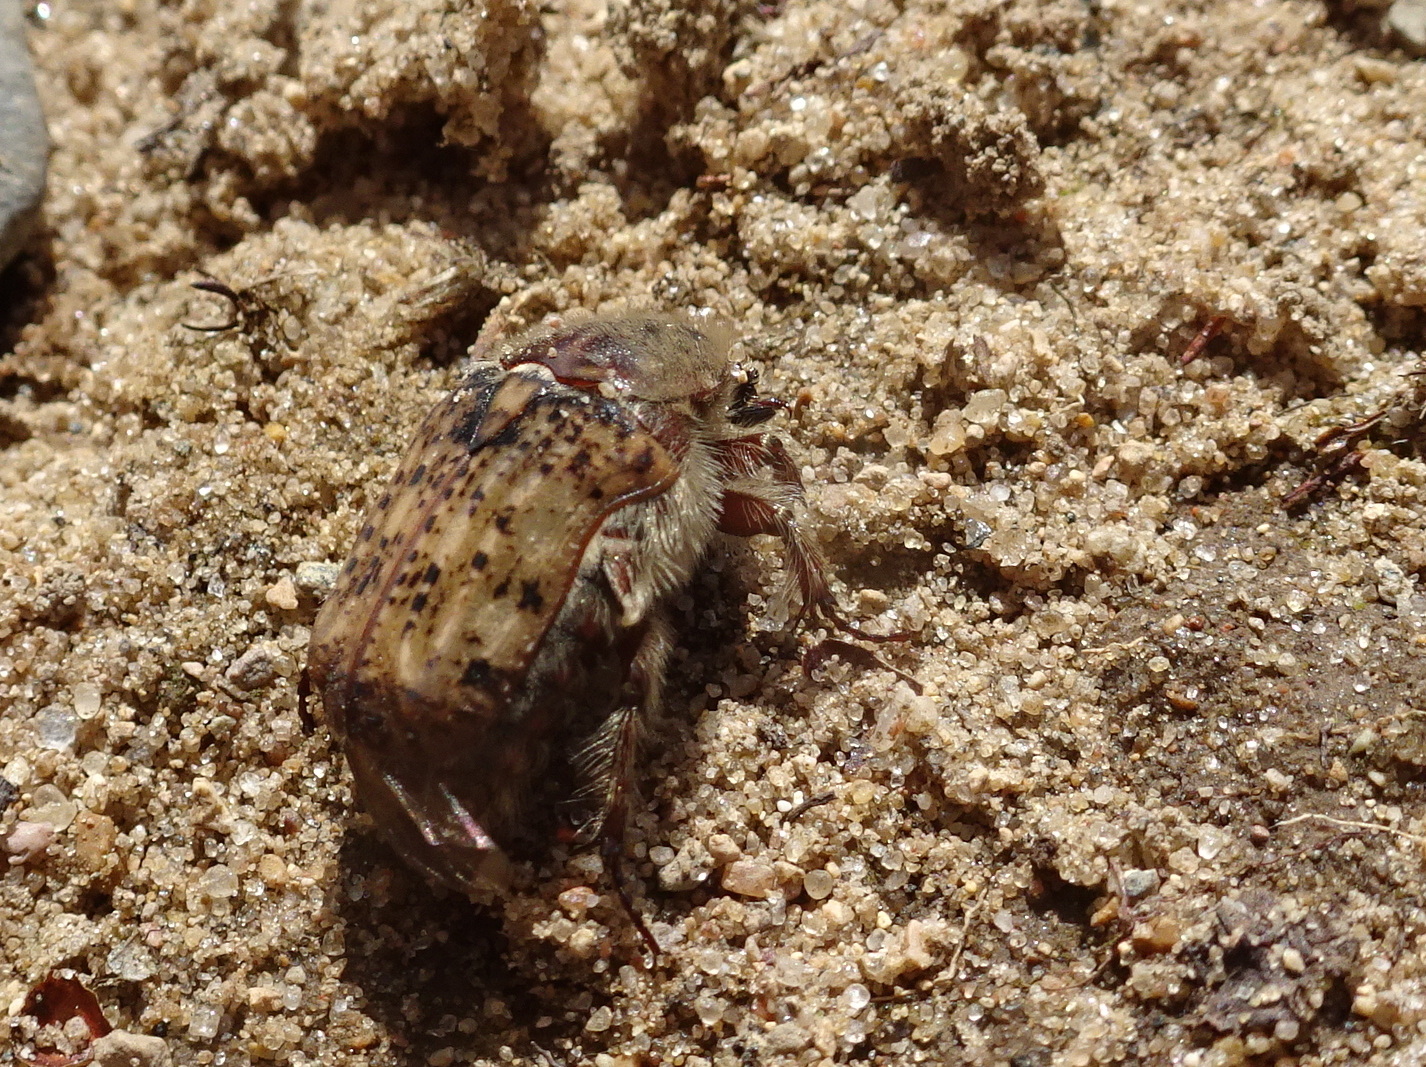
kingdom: Animalia
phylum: Arthropoda
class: Insecta
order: Coleoptera
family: Scarabaeidae
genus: Euphoria
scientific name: Euphoria inda
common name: Bumble flower beetle
